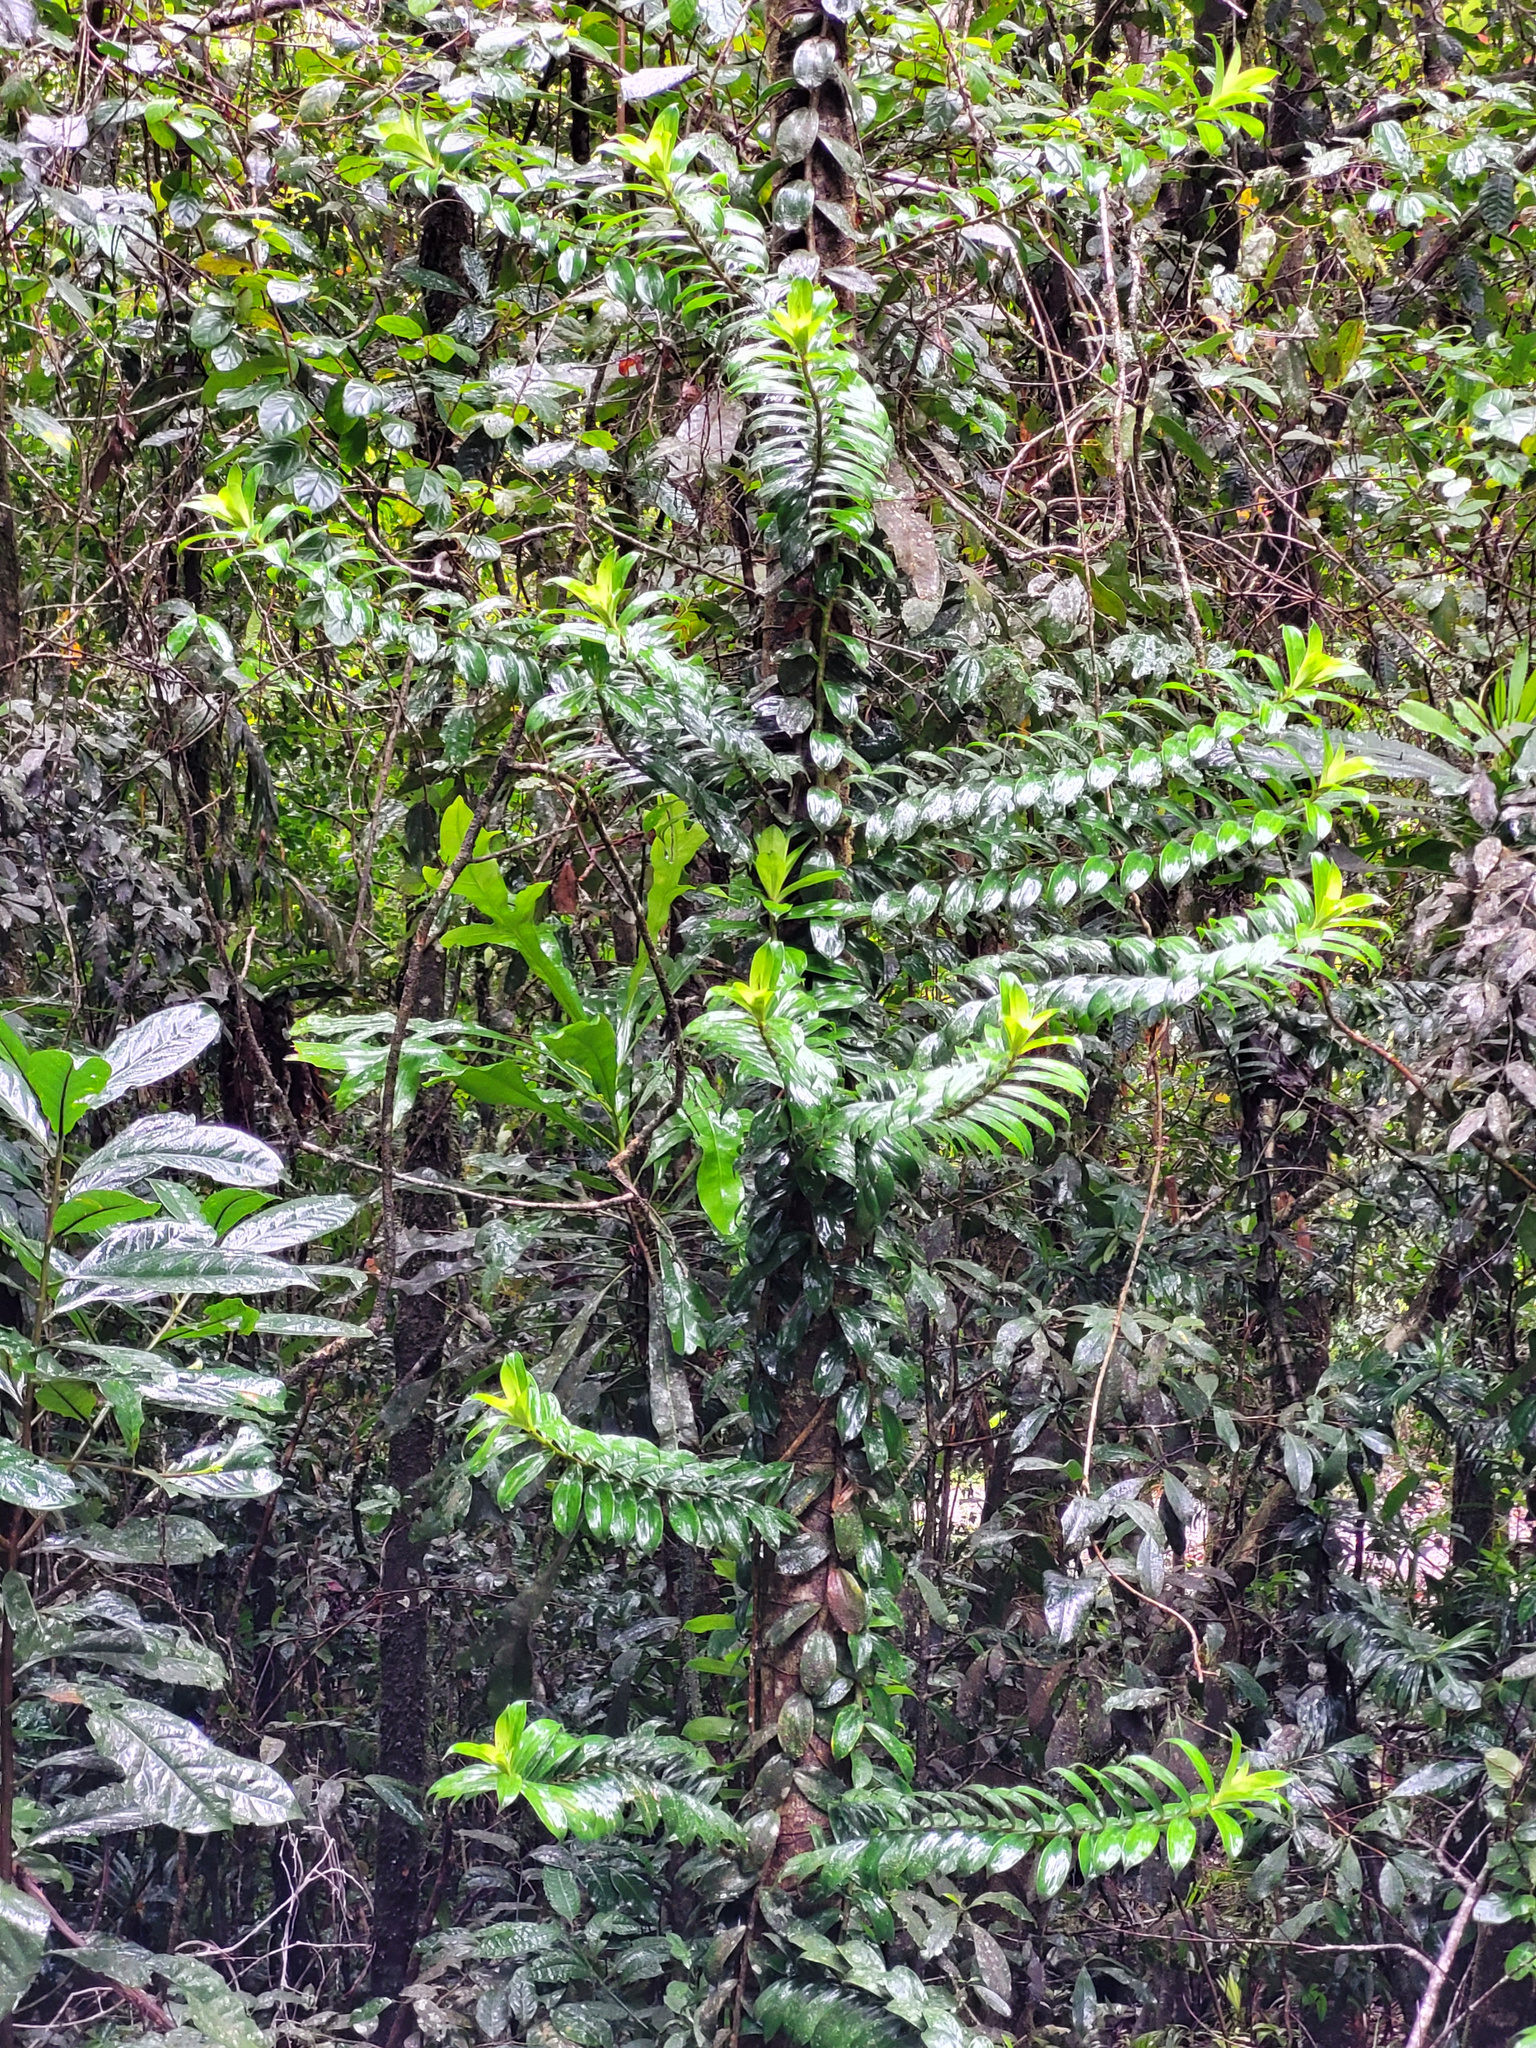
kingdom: Plantae
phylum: Tracheophyta
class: Liliopsida
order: Pandanales
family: Pandanaceae
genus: Freycinetia
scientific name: Freycinetia scandens
